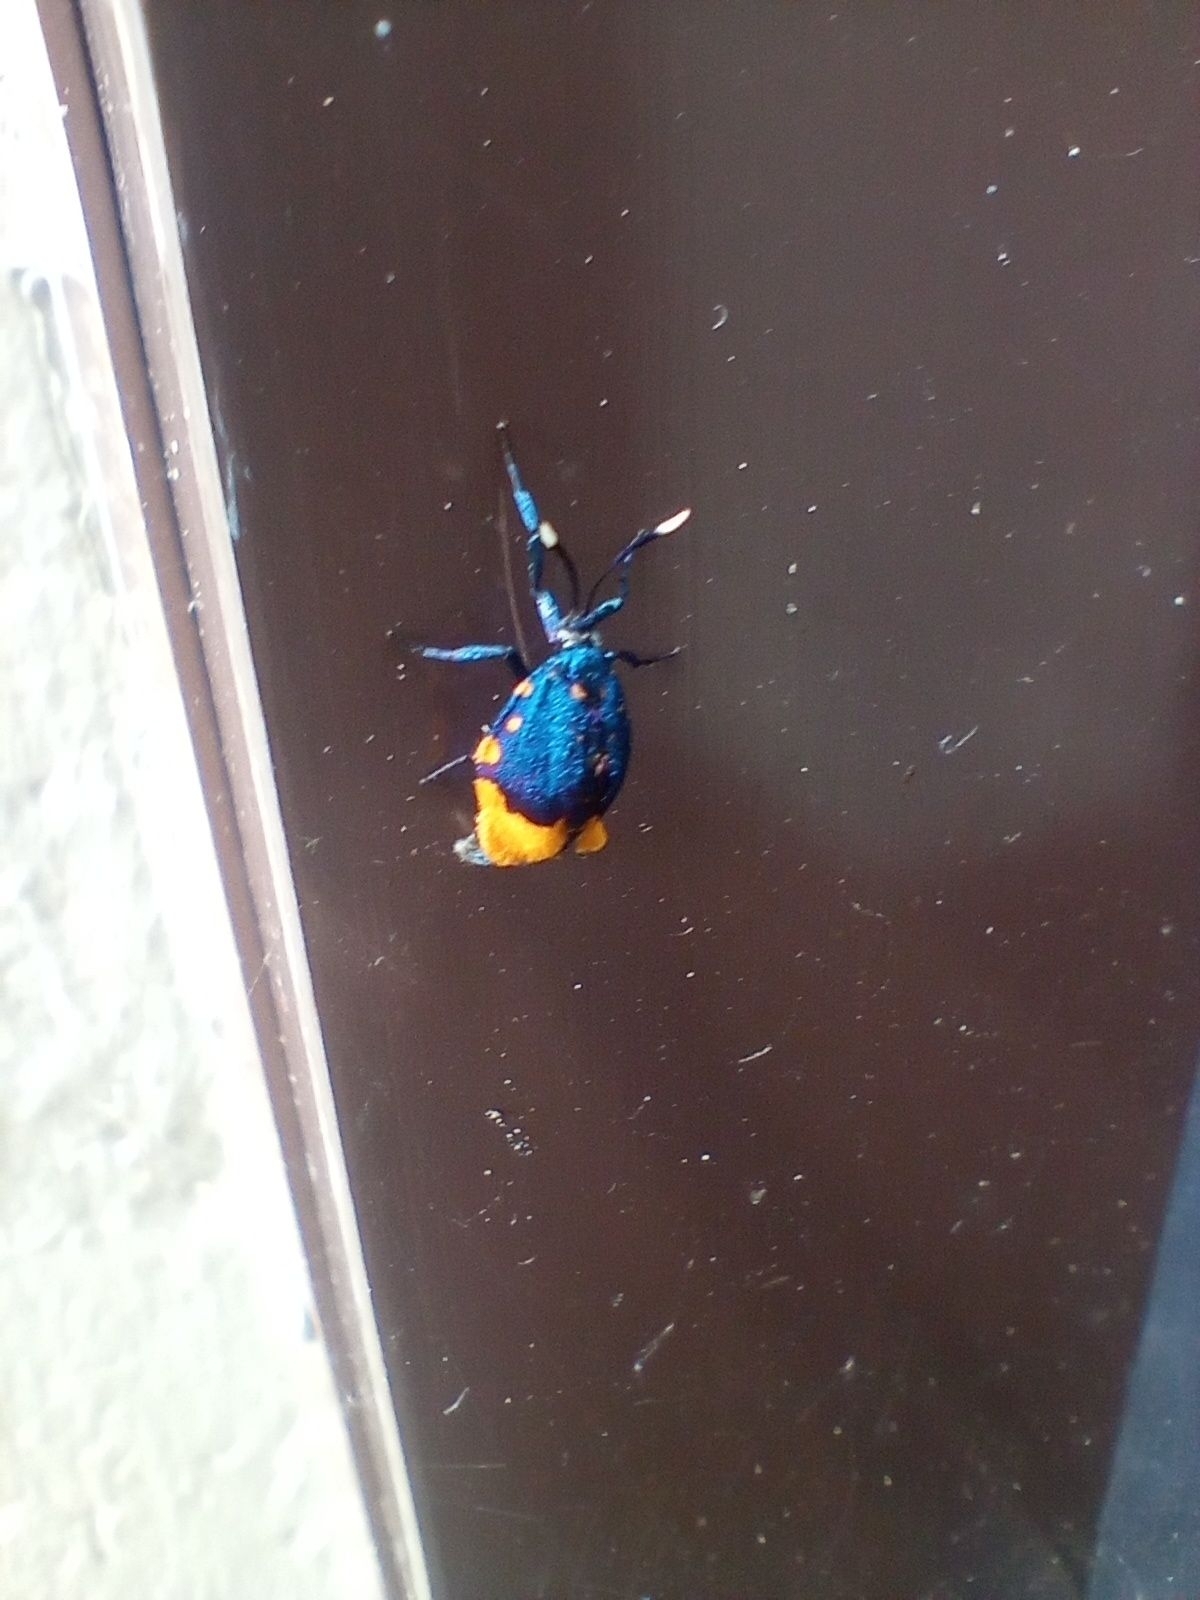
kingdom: Animalia
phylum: Arthropoda
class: Insecta
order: Lepidoptera
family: Psychidae
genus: Cebysa
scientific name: Cebysa leucotelus
